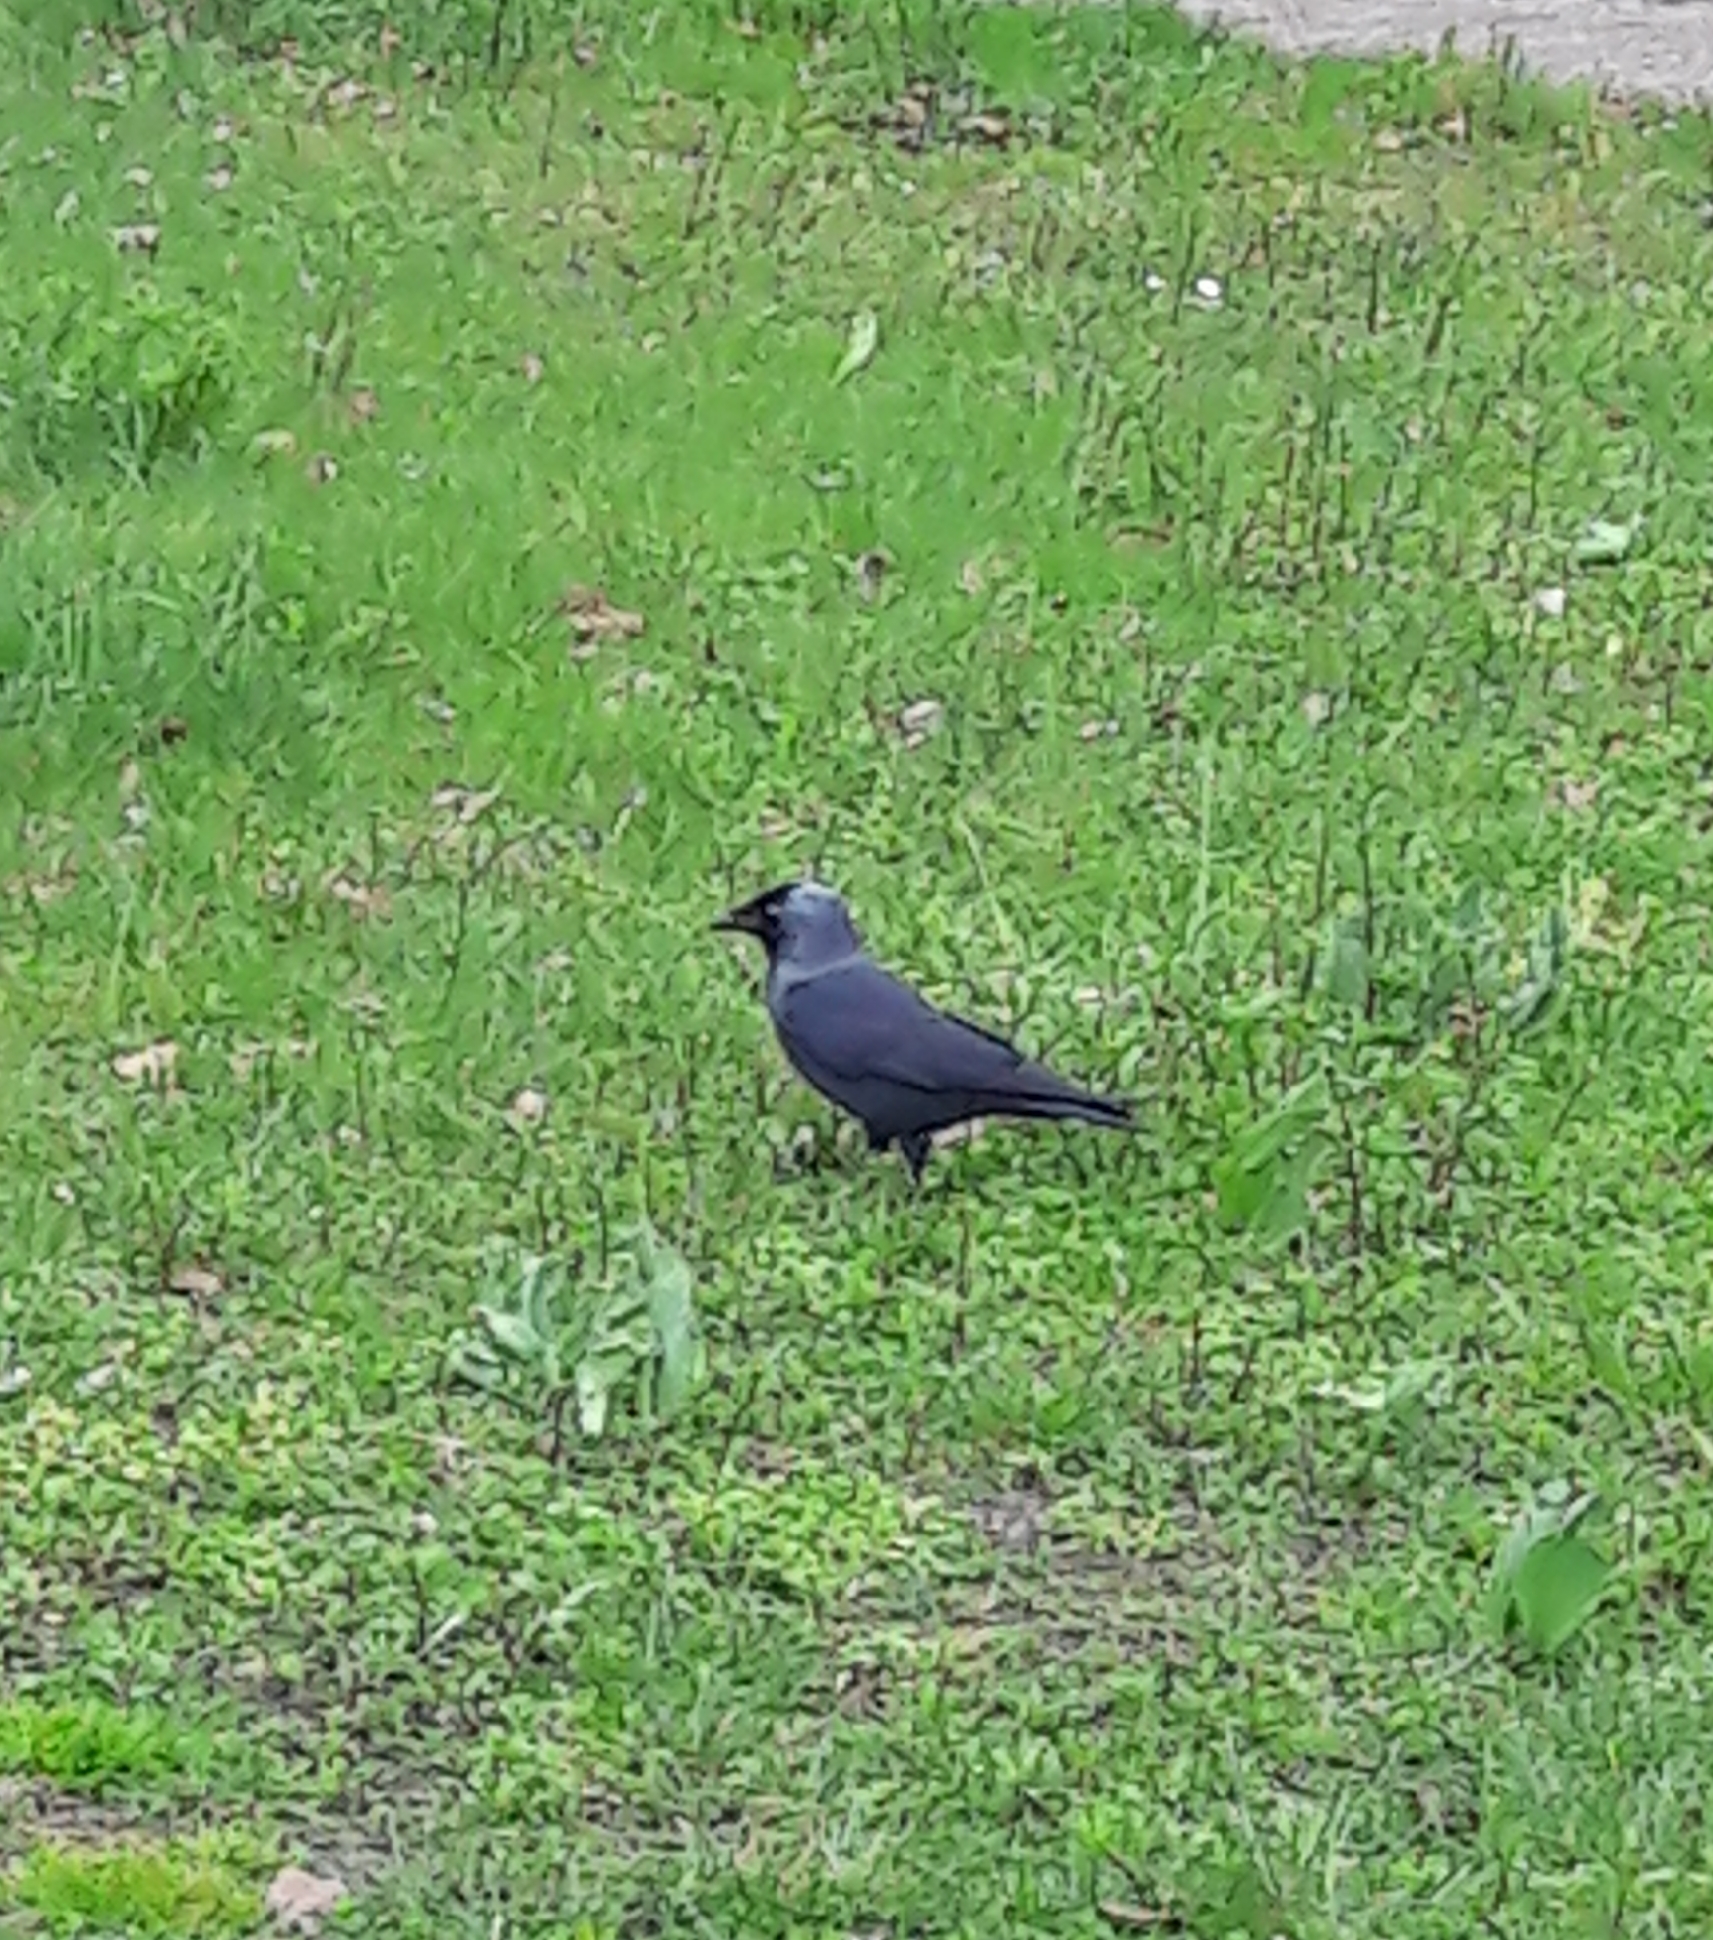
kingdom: Animalia
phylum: Chordata
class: Aves
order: Passeriformes
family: Corvidae
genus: Coloeus
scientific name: Coloeus monedula
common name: Western jackdaw
